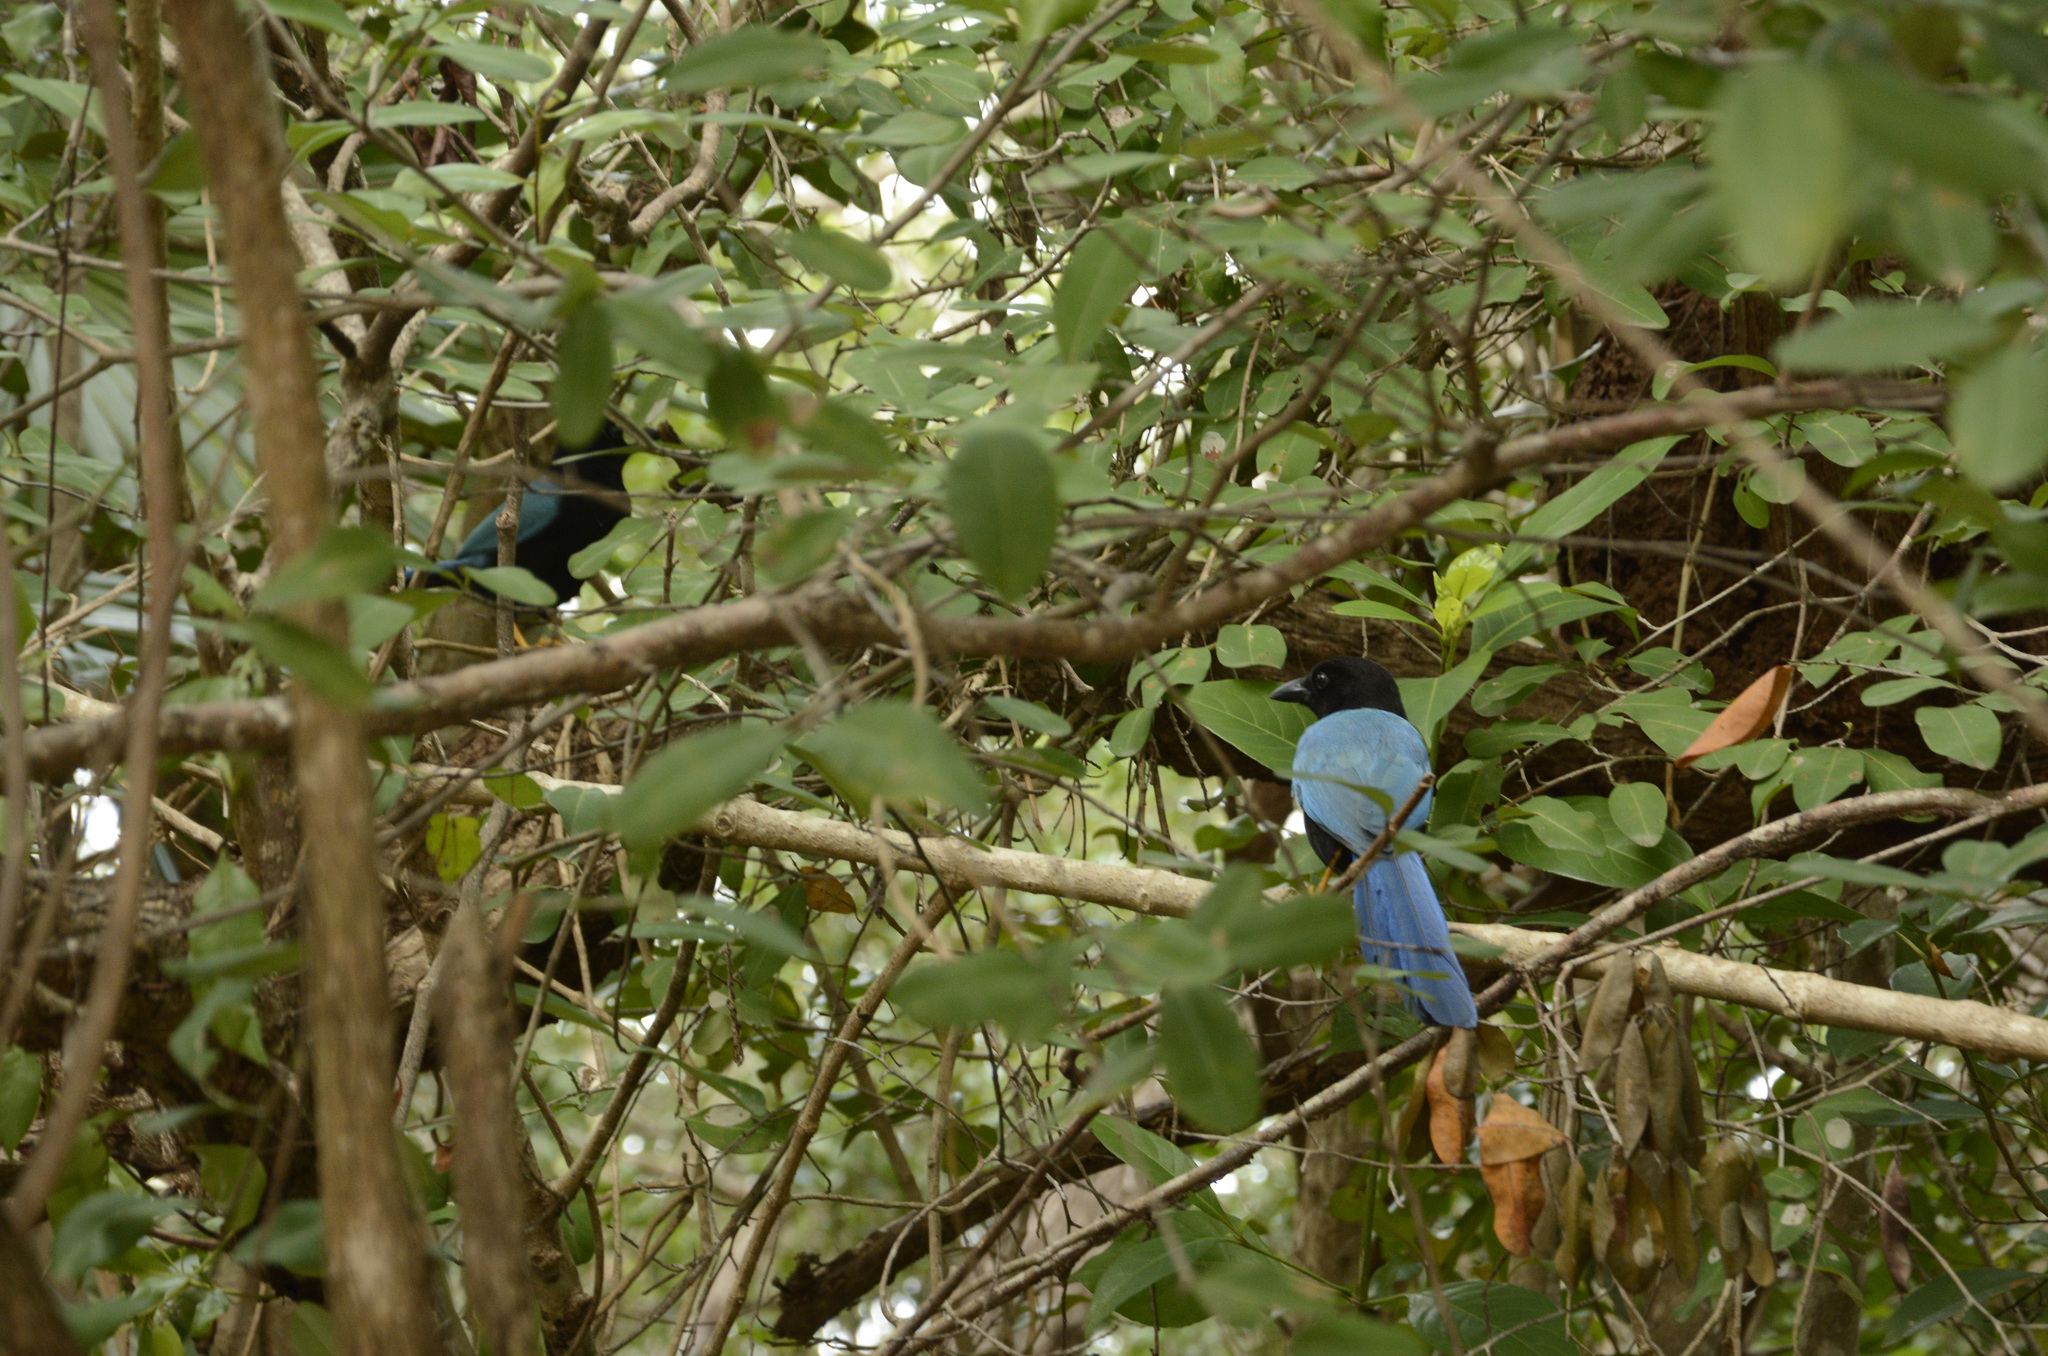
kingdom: Animalia
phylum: Chordata
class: Aves
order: Passeriformes
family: Corvidae
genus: Cyanocorax
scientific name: Cyanocorax yucatanicus
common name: Yucatan jay
